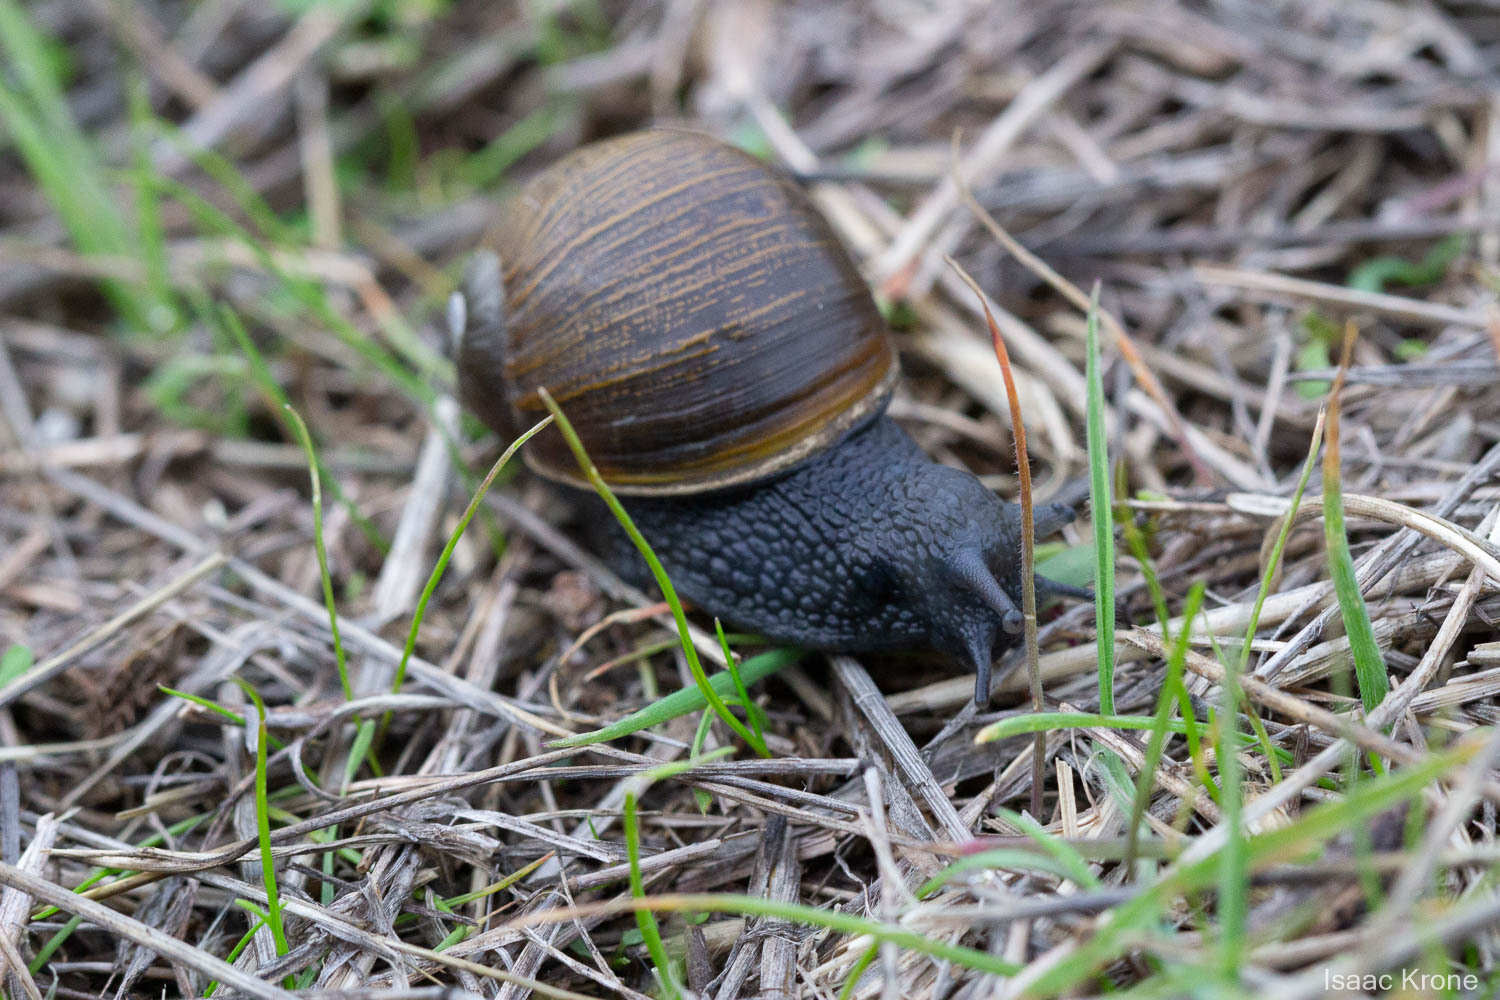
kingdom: Animalia
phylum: Mollusca
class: Gastropoda
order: Stylommatophora
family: Helicidae
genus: Cantareus
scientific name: Cantareus apertus
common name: Green gardensnail
